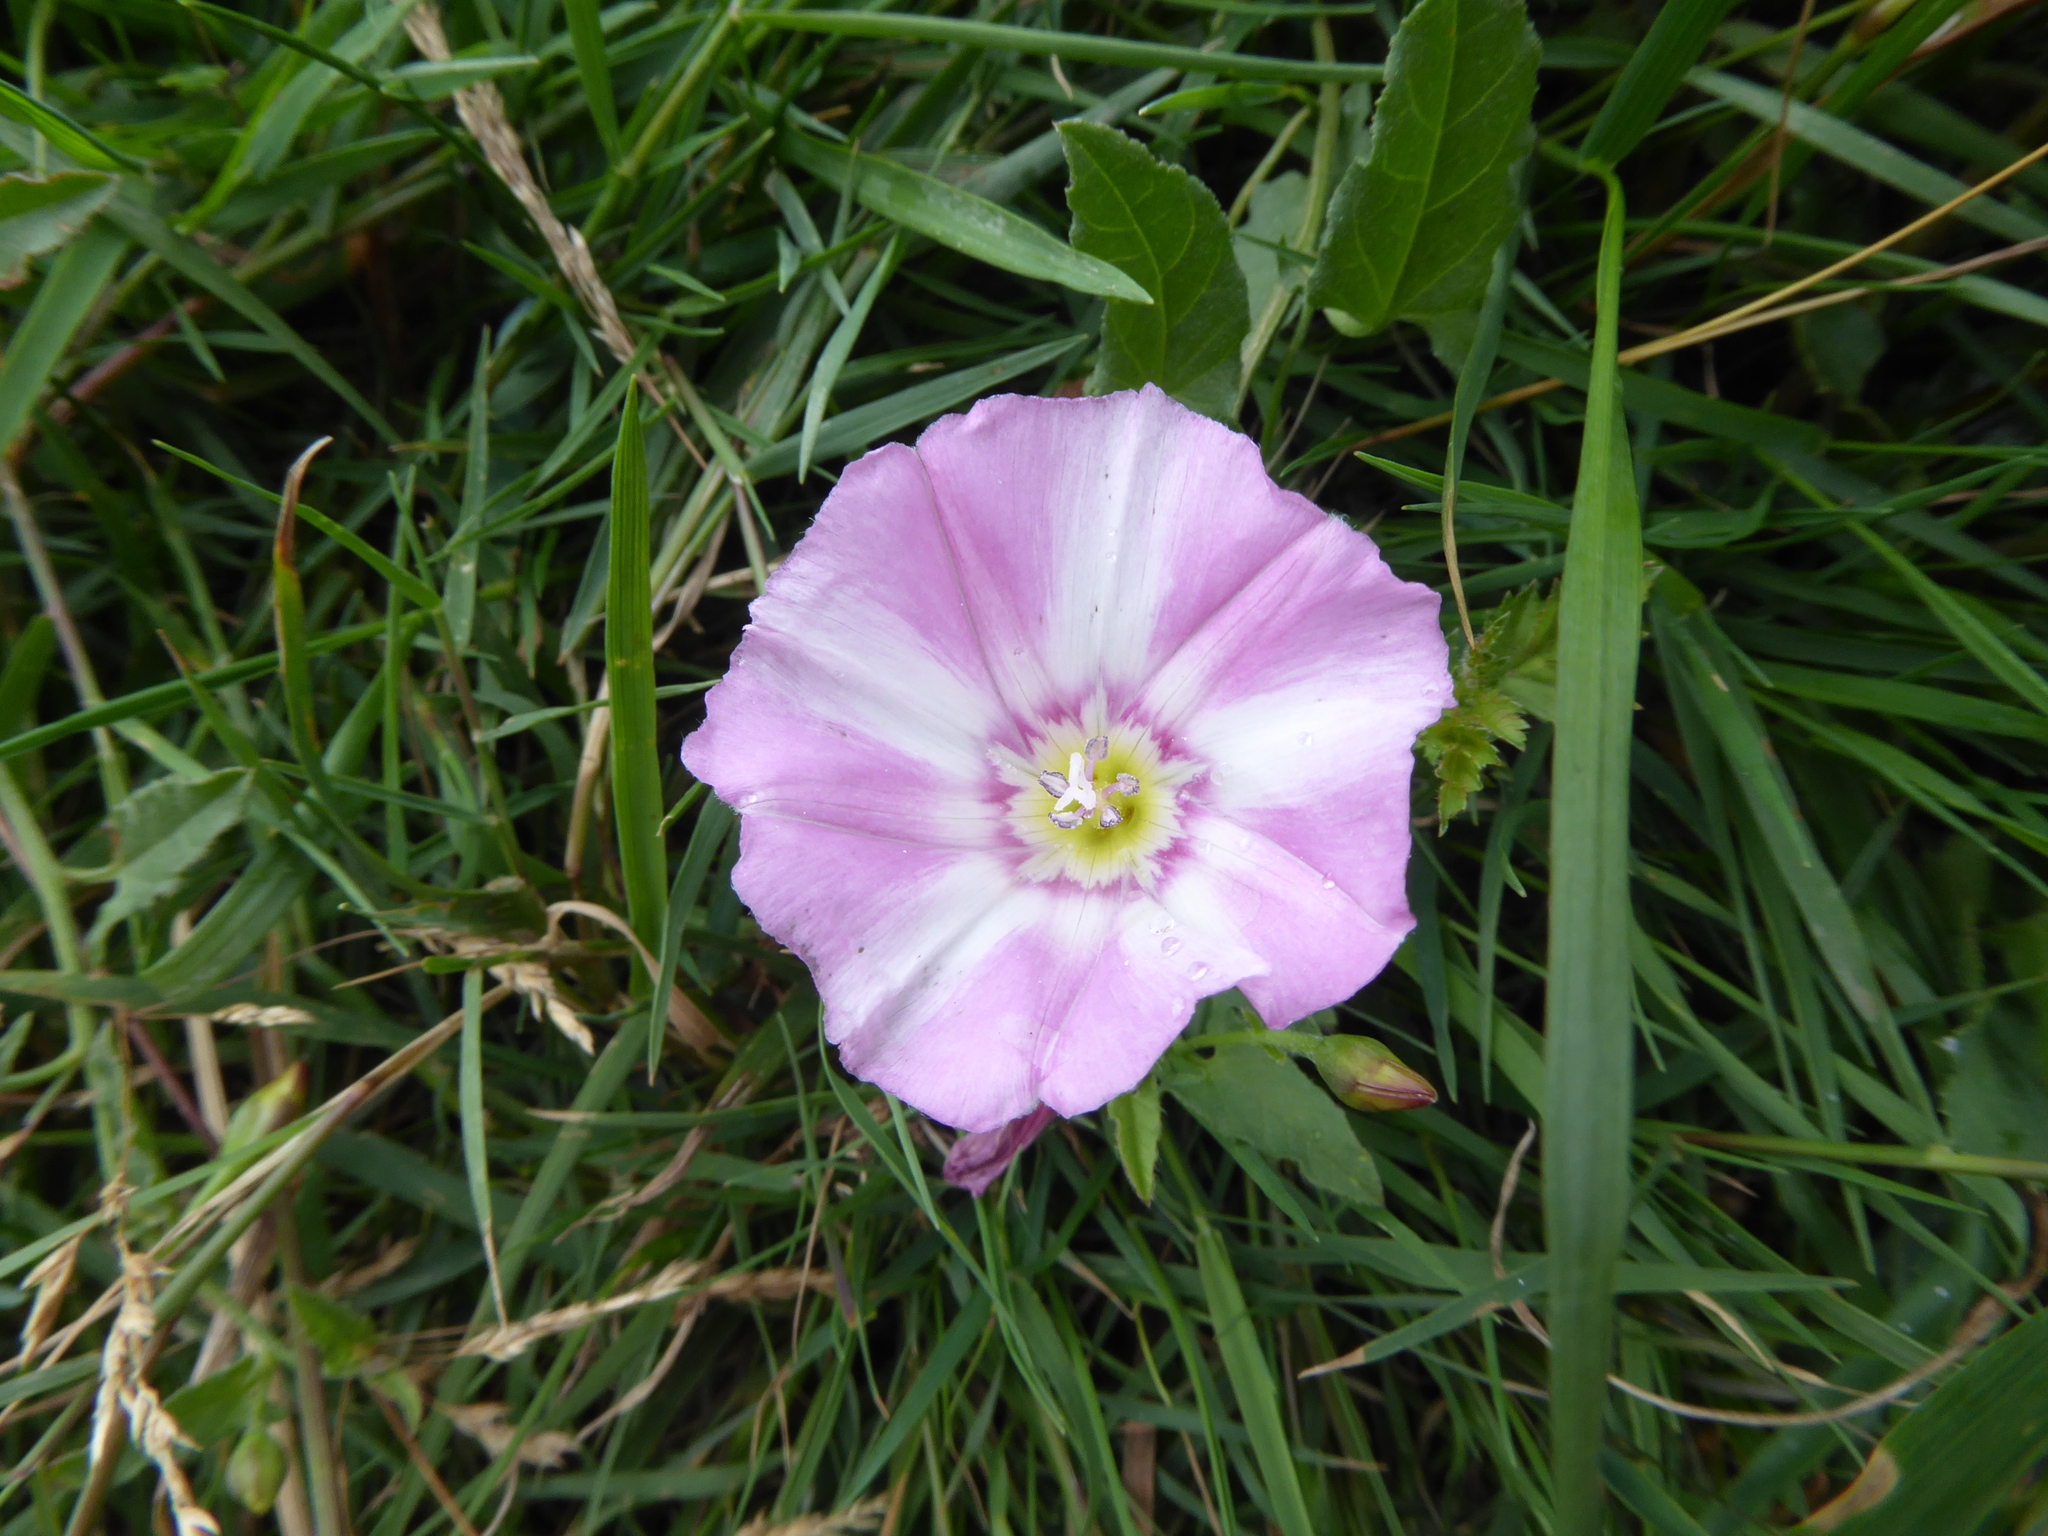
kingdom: Plantae
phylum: Tracheophyta
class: Magnoliopsida
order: Solanales
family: Convolvulaceae
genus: Convolvulus
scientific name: Convolvulus arvensis
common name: Field bindweed
